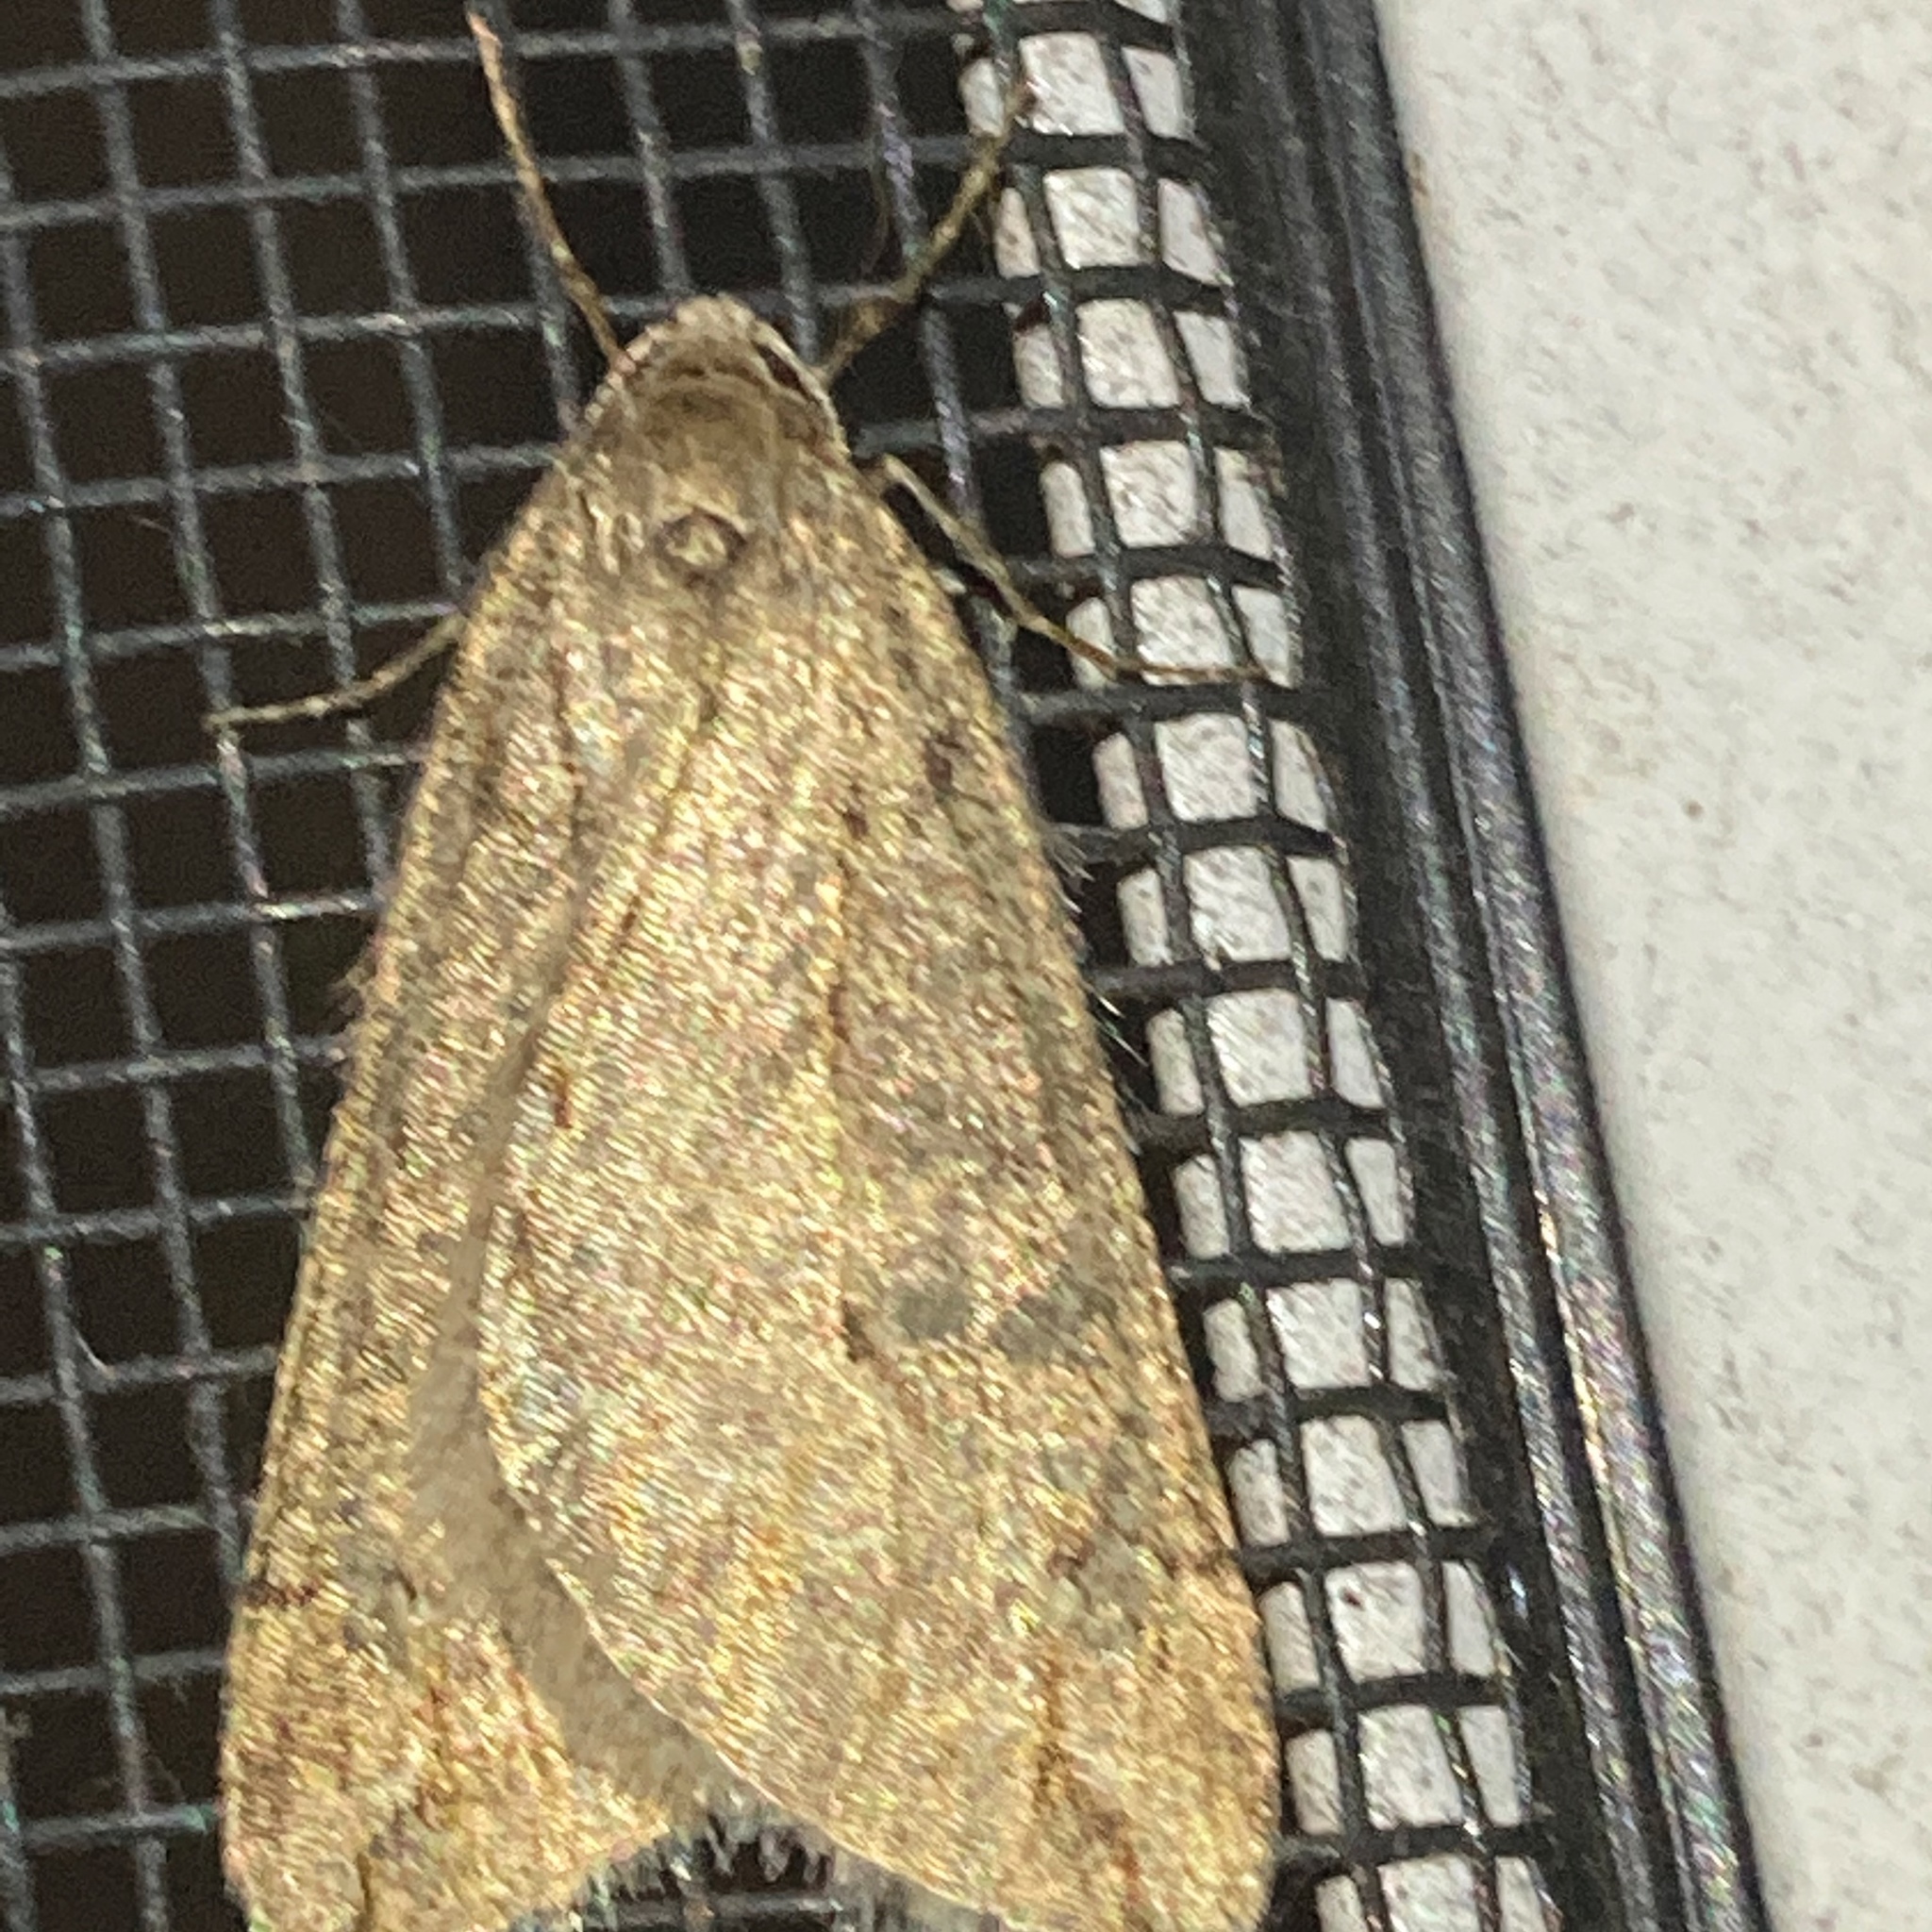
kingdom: Animalia
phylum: Arthropoda
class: Insecta
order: Lepidoptera
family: Geometridae
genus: Paleacrita
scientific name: Paleacrita vernata
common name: Spring cankerworm
